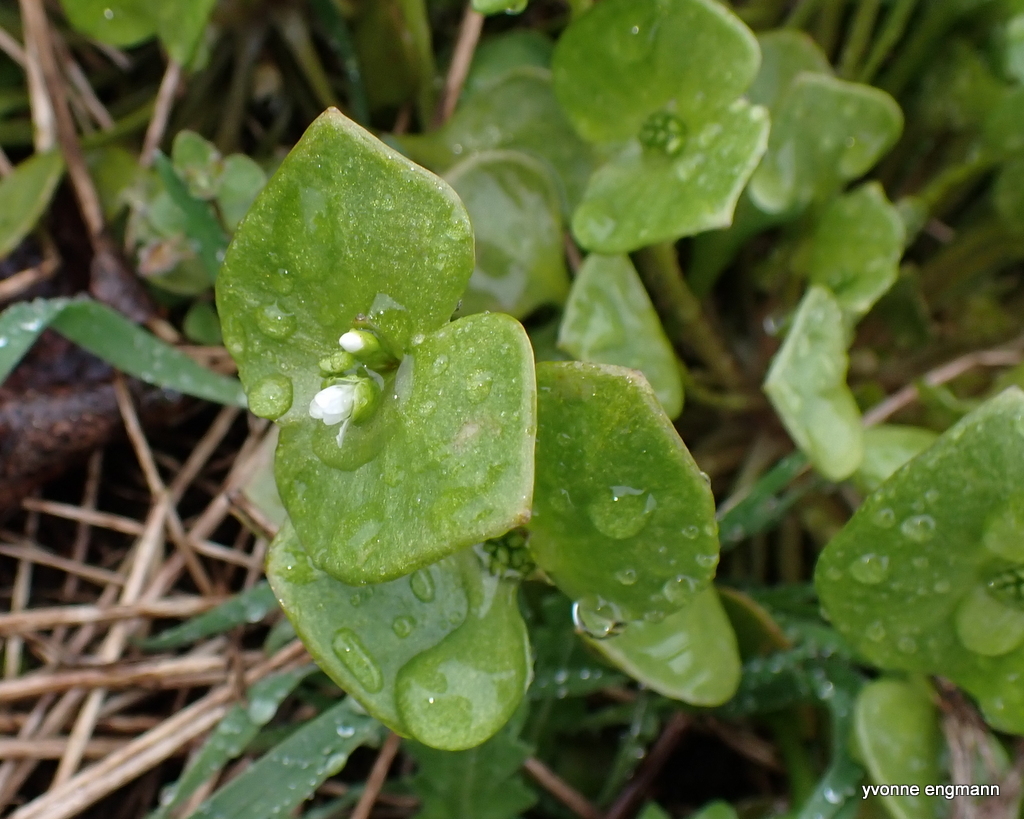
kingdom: Plantae
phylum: Tracheophyta
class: Magnoliopsida
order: Caryophyllales
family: Montiaceae
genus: Claytonia
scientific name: Claytonia perfoliata
